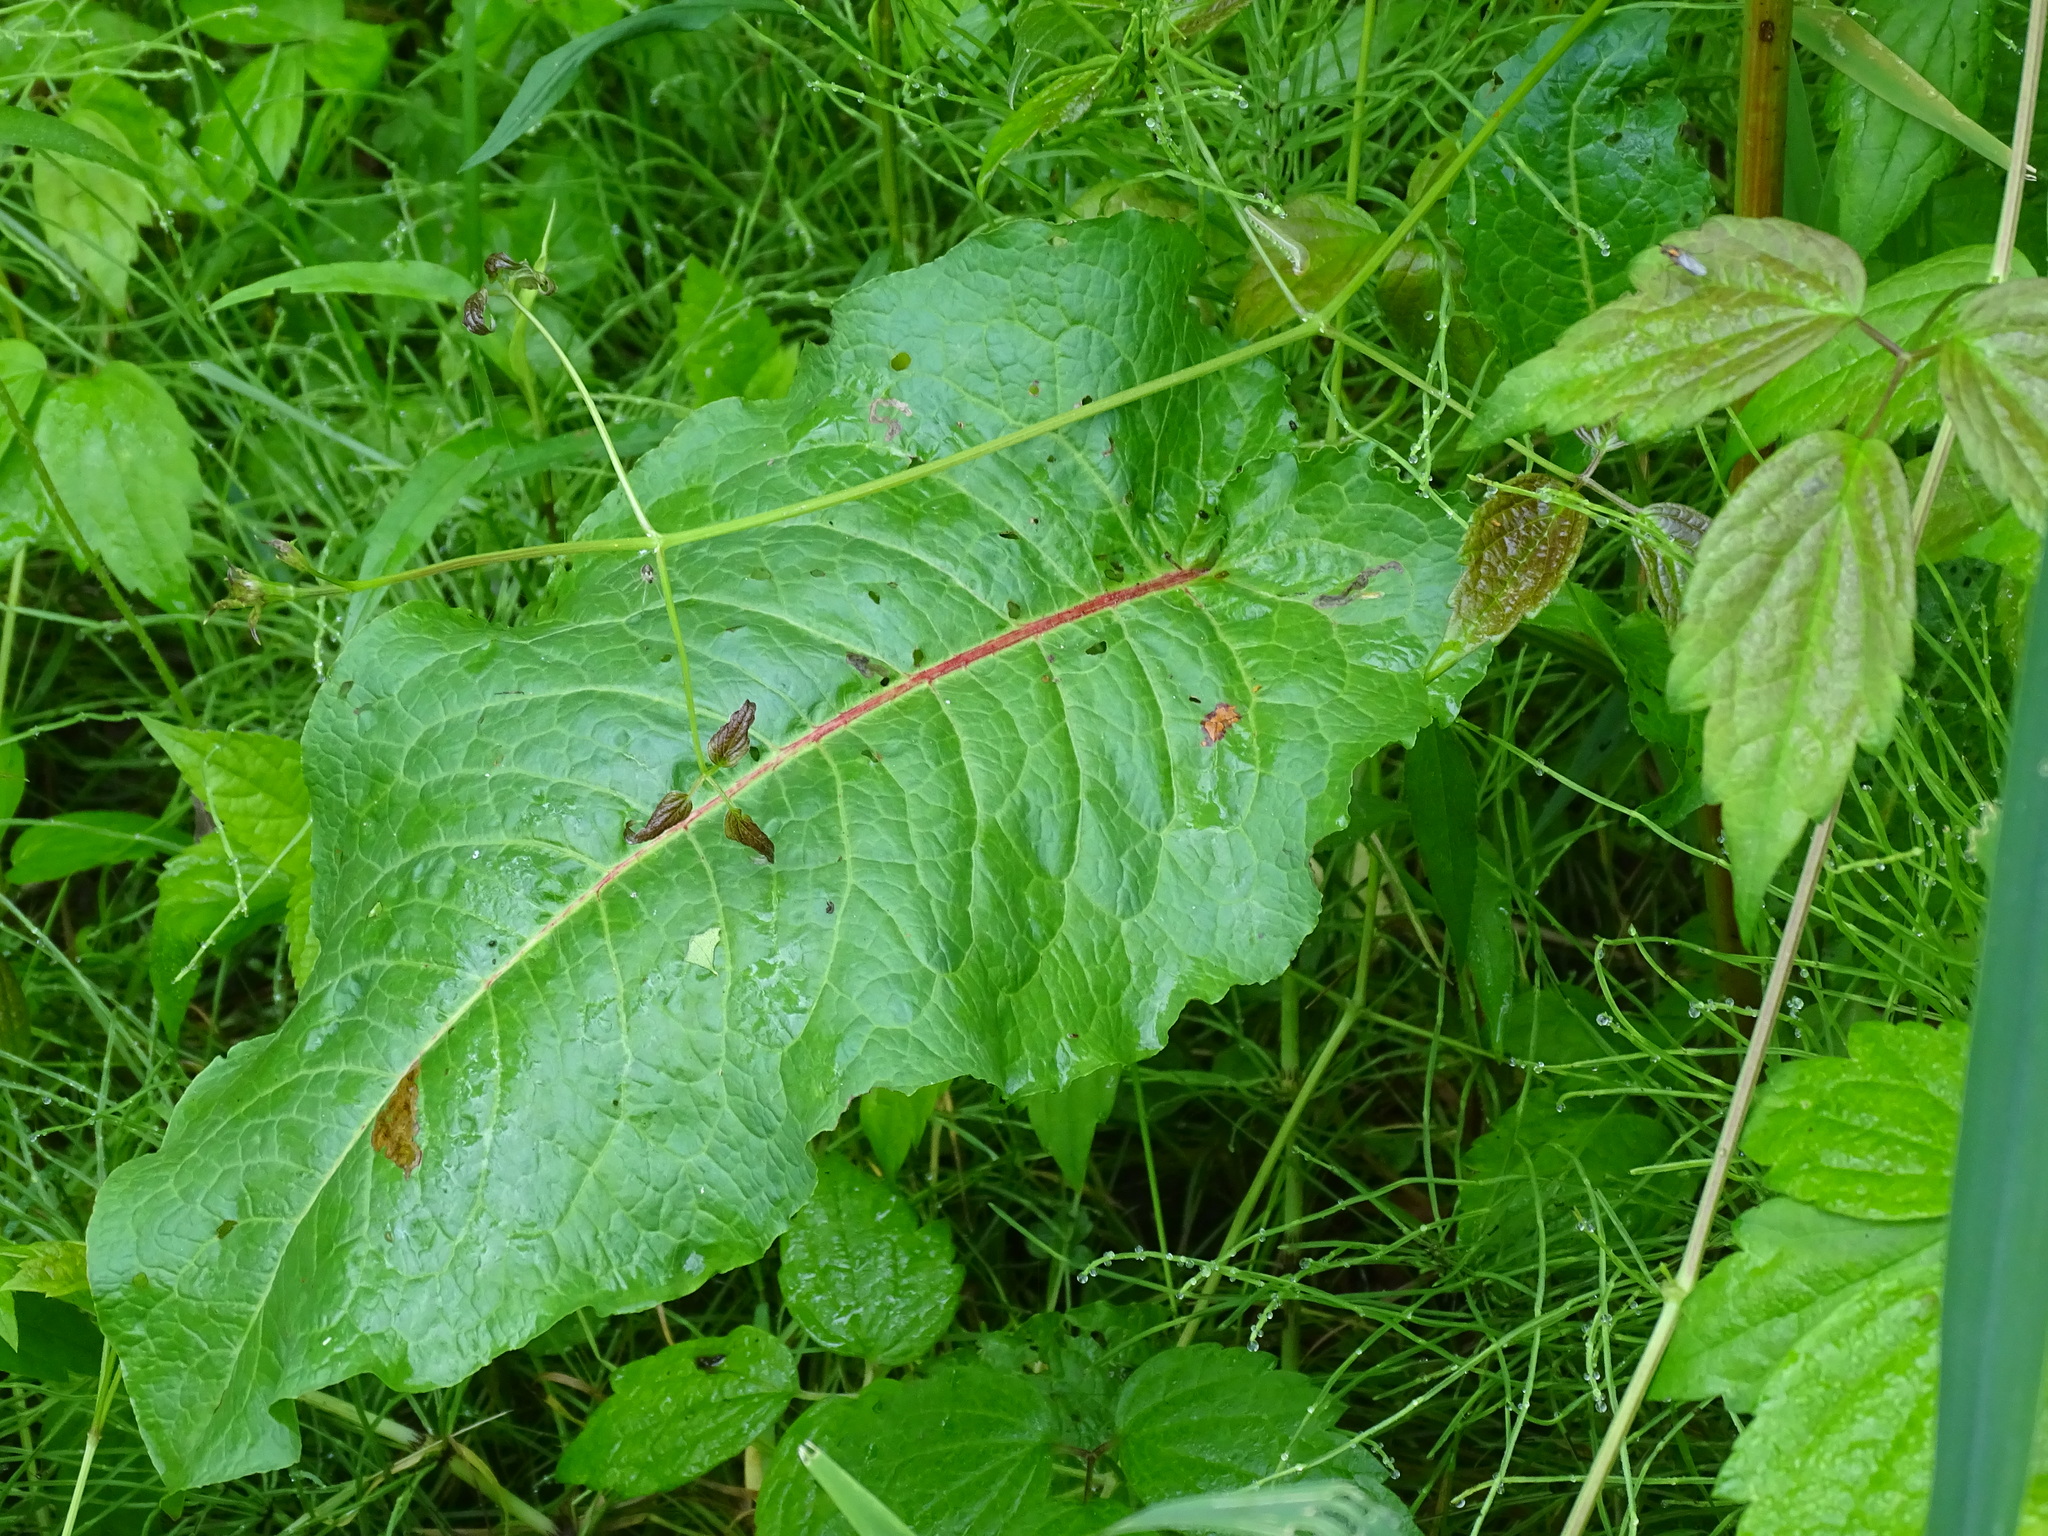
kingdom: Plantae
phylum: Tracheophyta
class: Magnoliopsida
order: Caryophyllales
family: Polygonaceae
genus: Rumex
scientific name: Rumex obtusifolius
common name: Bitter dock
